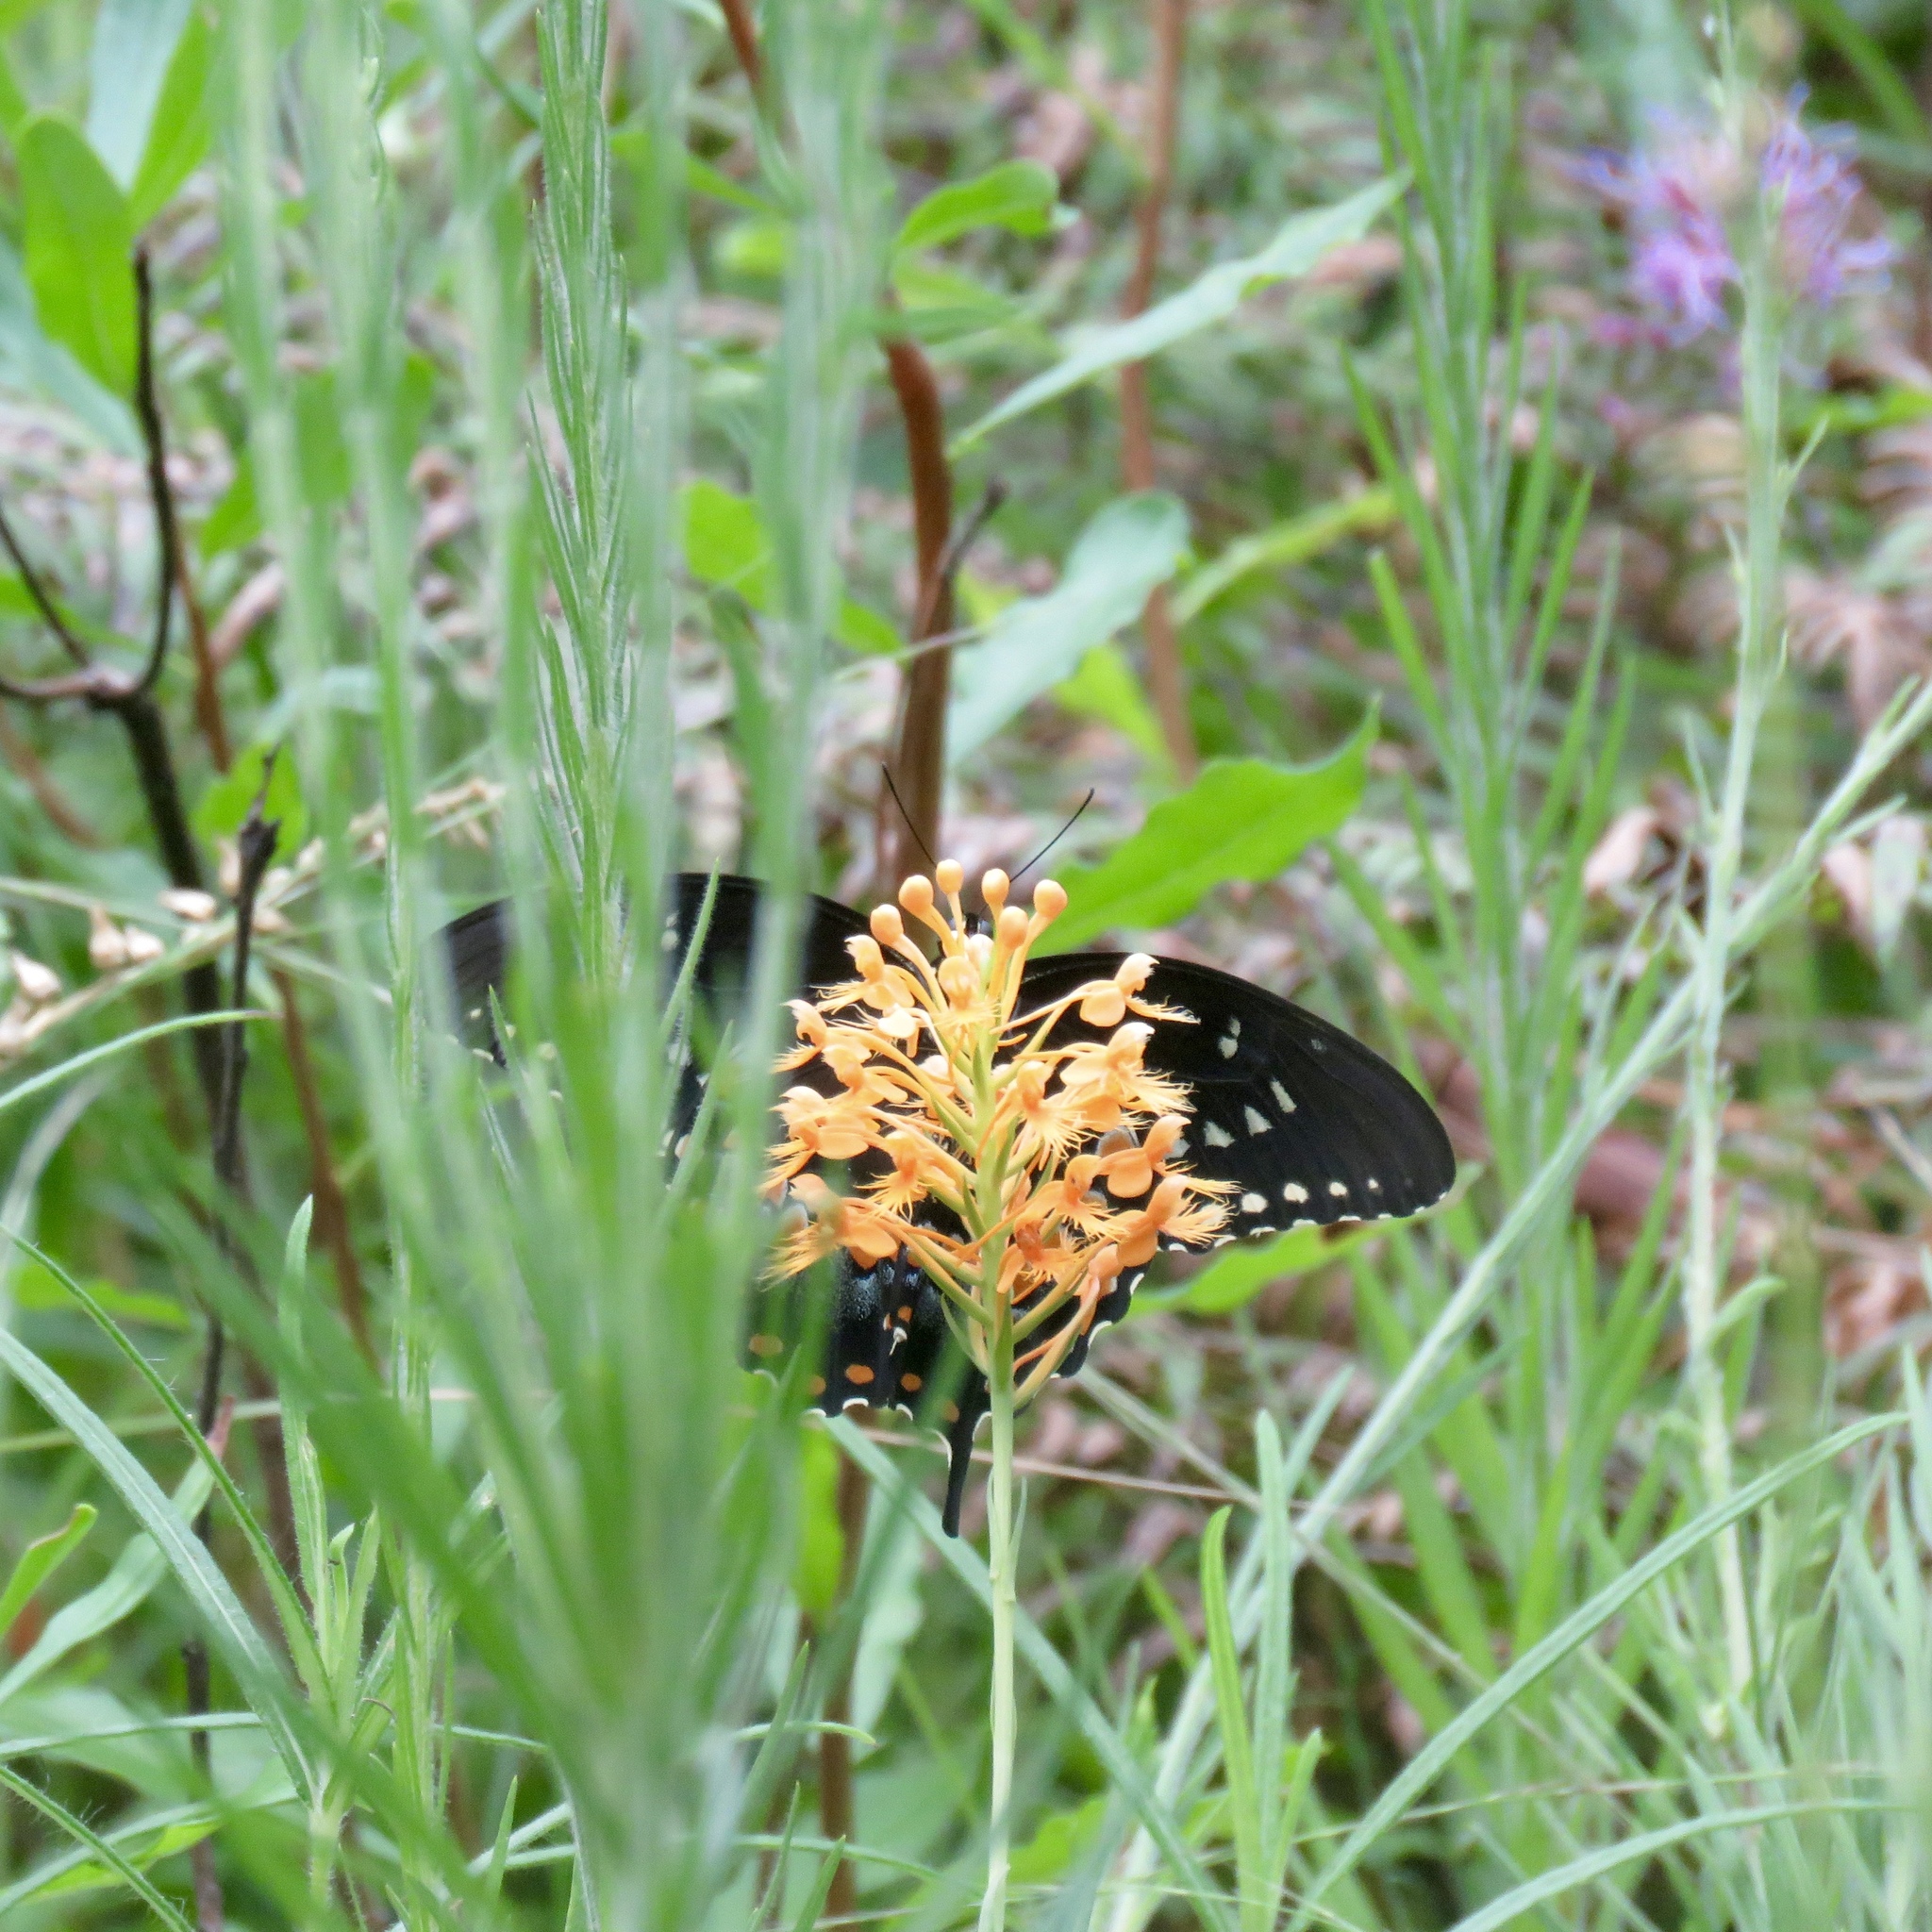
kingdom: Animalia
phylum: Arthropoda
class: Insecta
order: Lepidoptera
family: Papilionidae
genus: Papilio
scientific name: Papilio troilus
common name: Spicebush swallowtail
